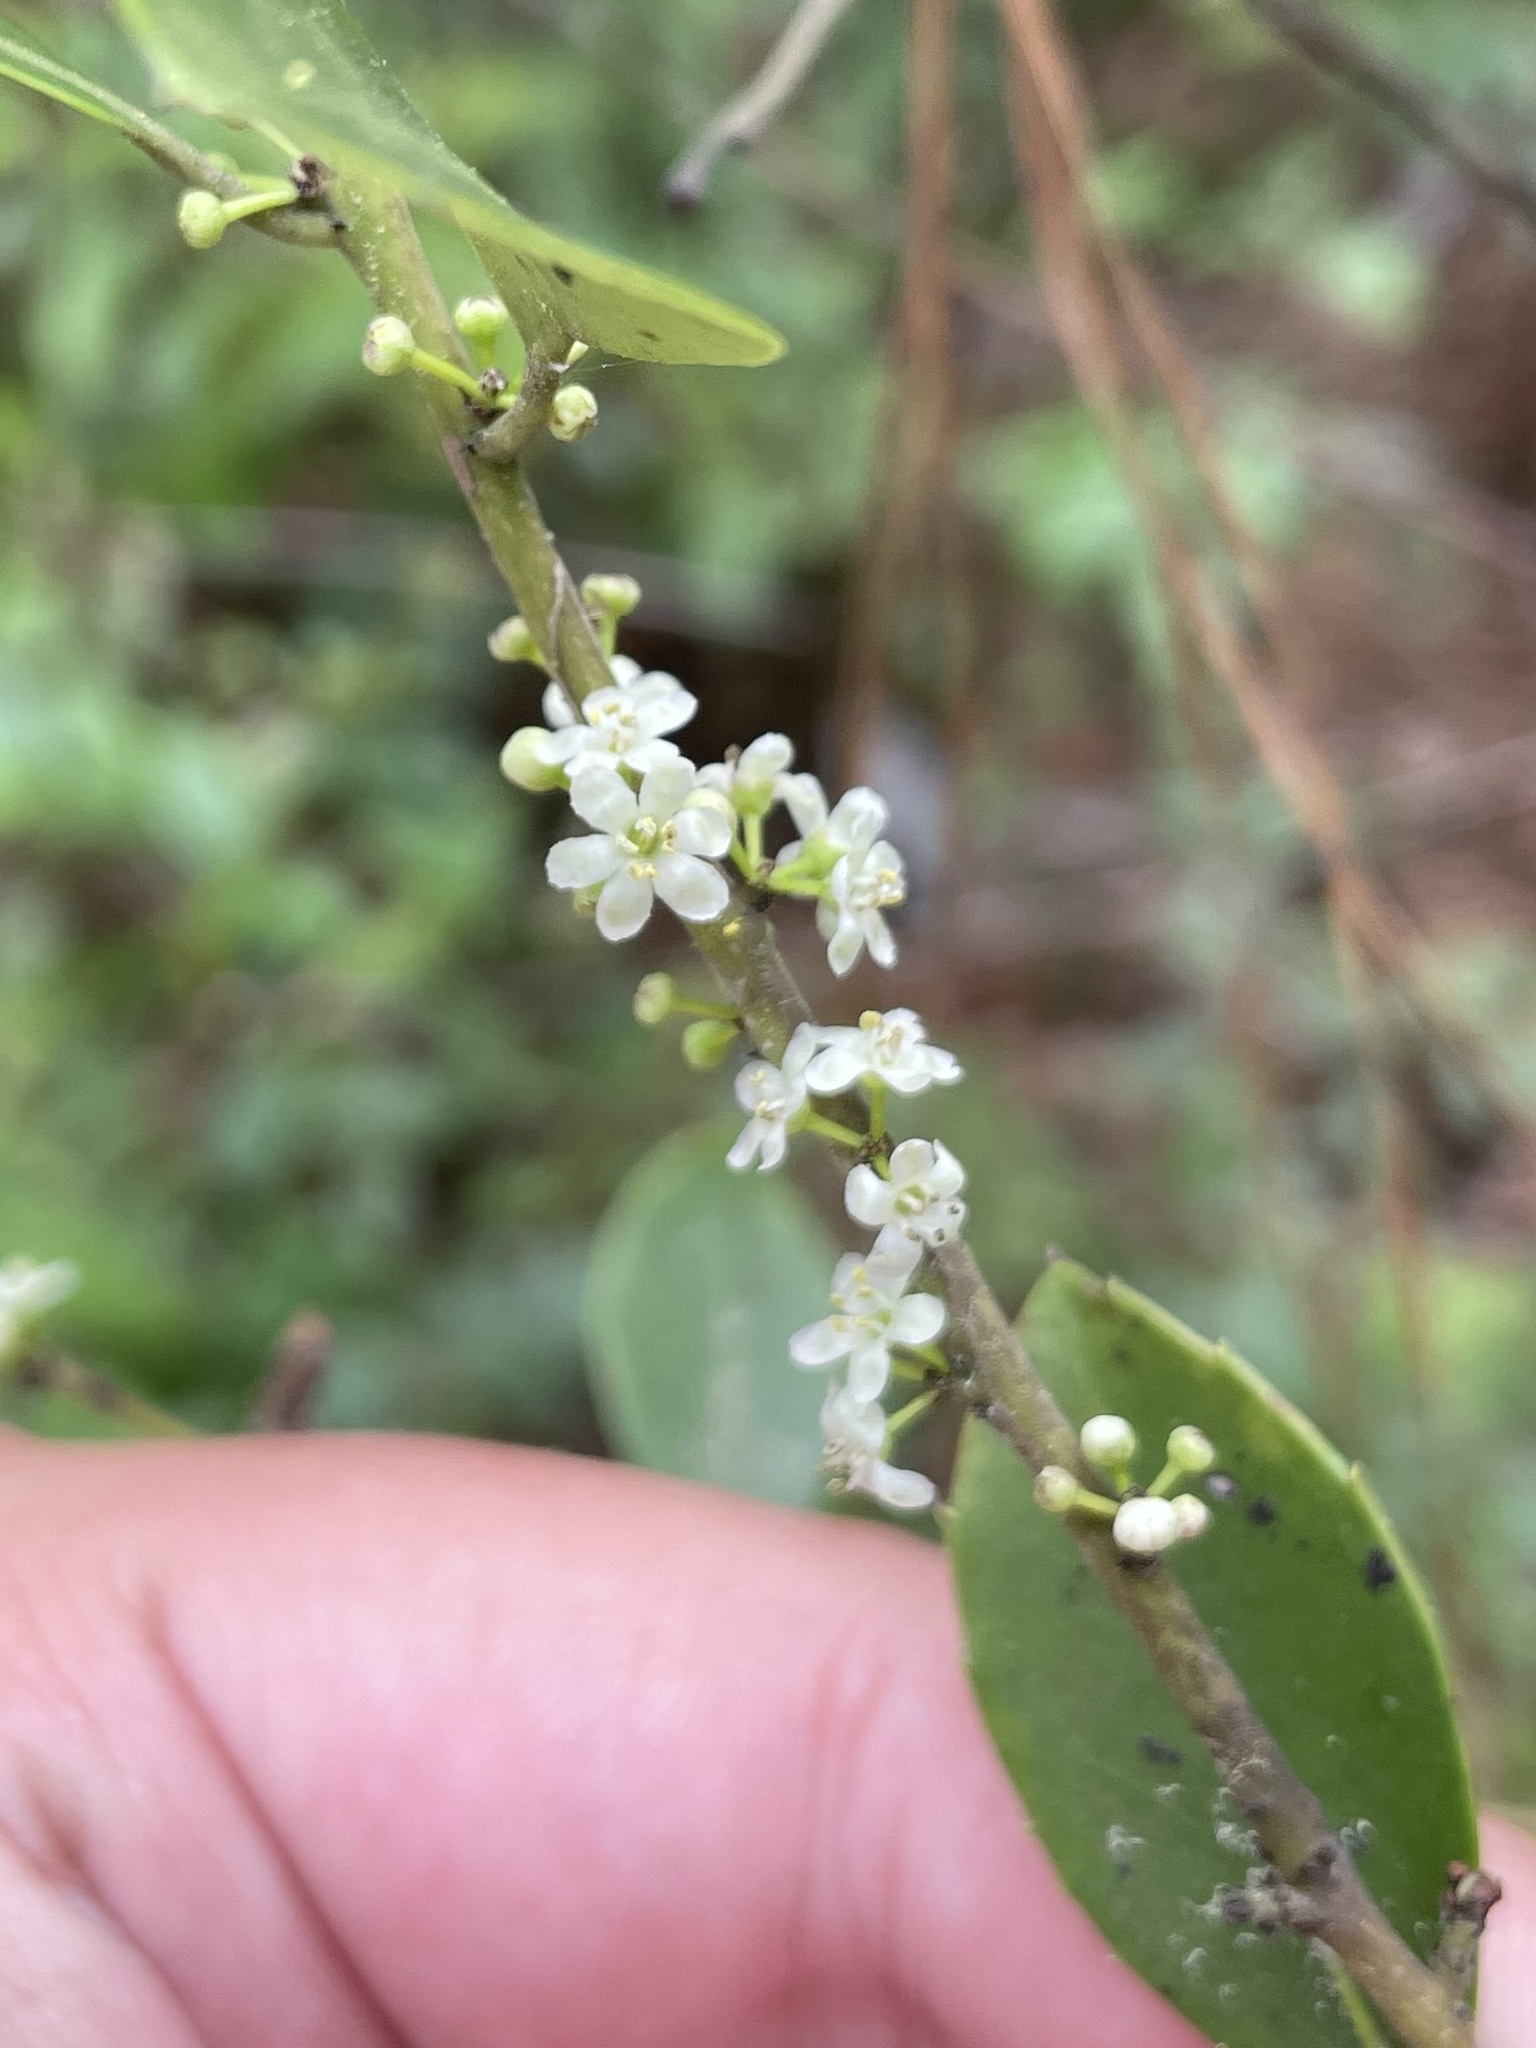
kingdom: Plantae
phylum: Tracheophyta
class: Magnoliopsida
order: Aquifoliales
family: Aquifoliaceae
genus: Ilex
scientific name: Ilex coriacea
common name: Sweet gallberry
